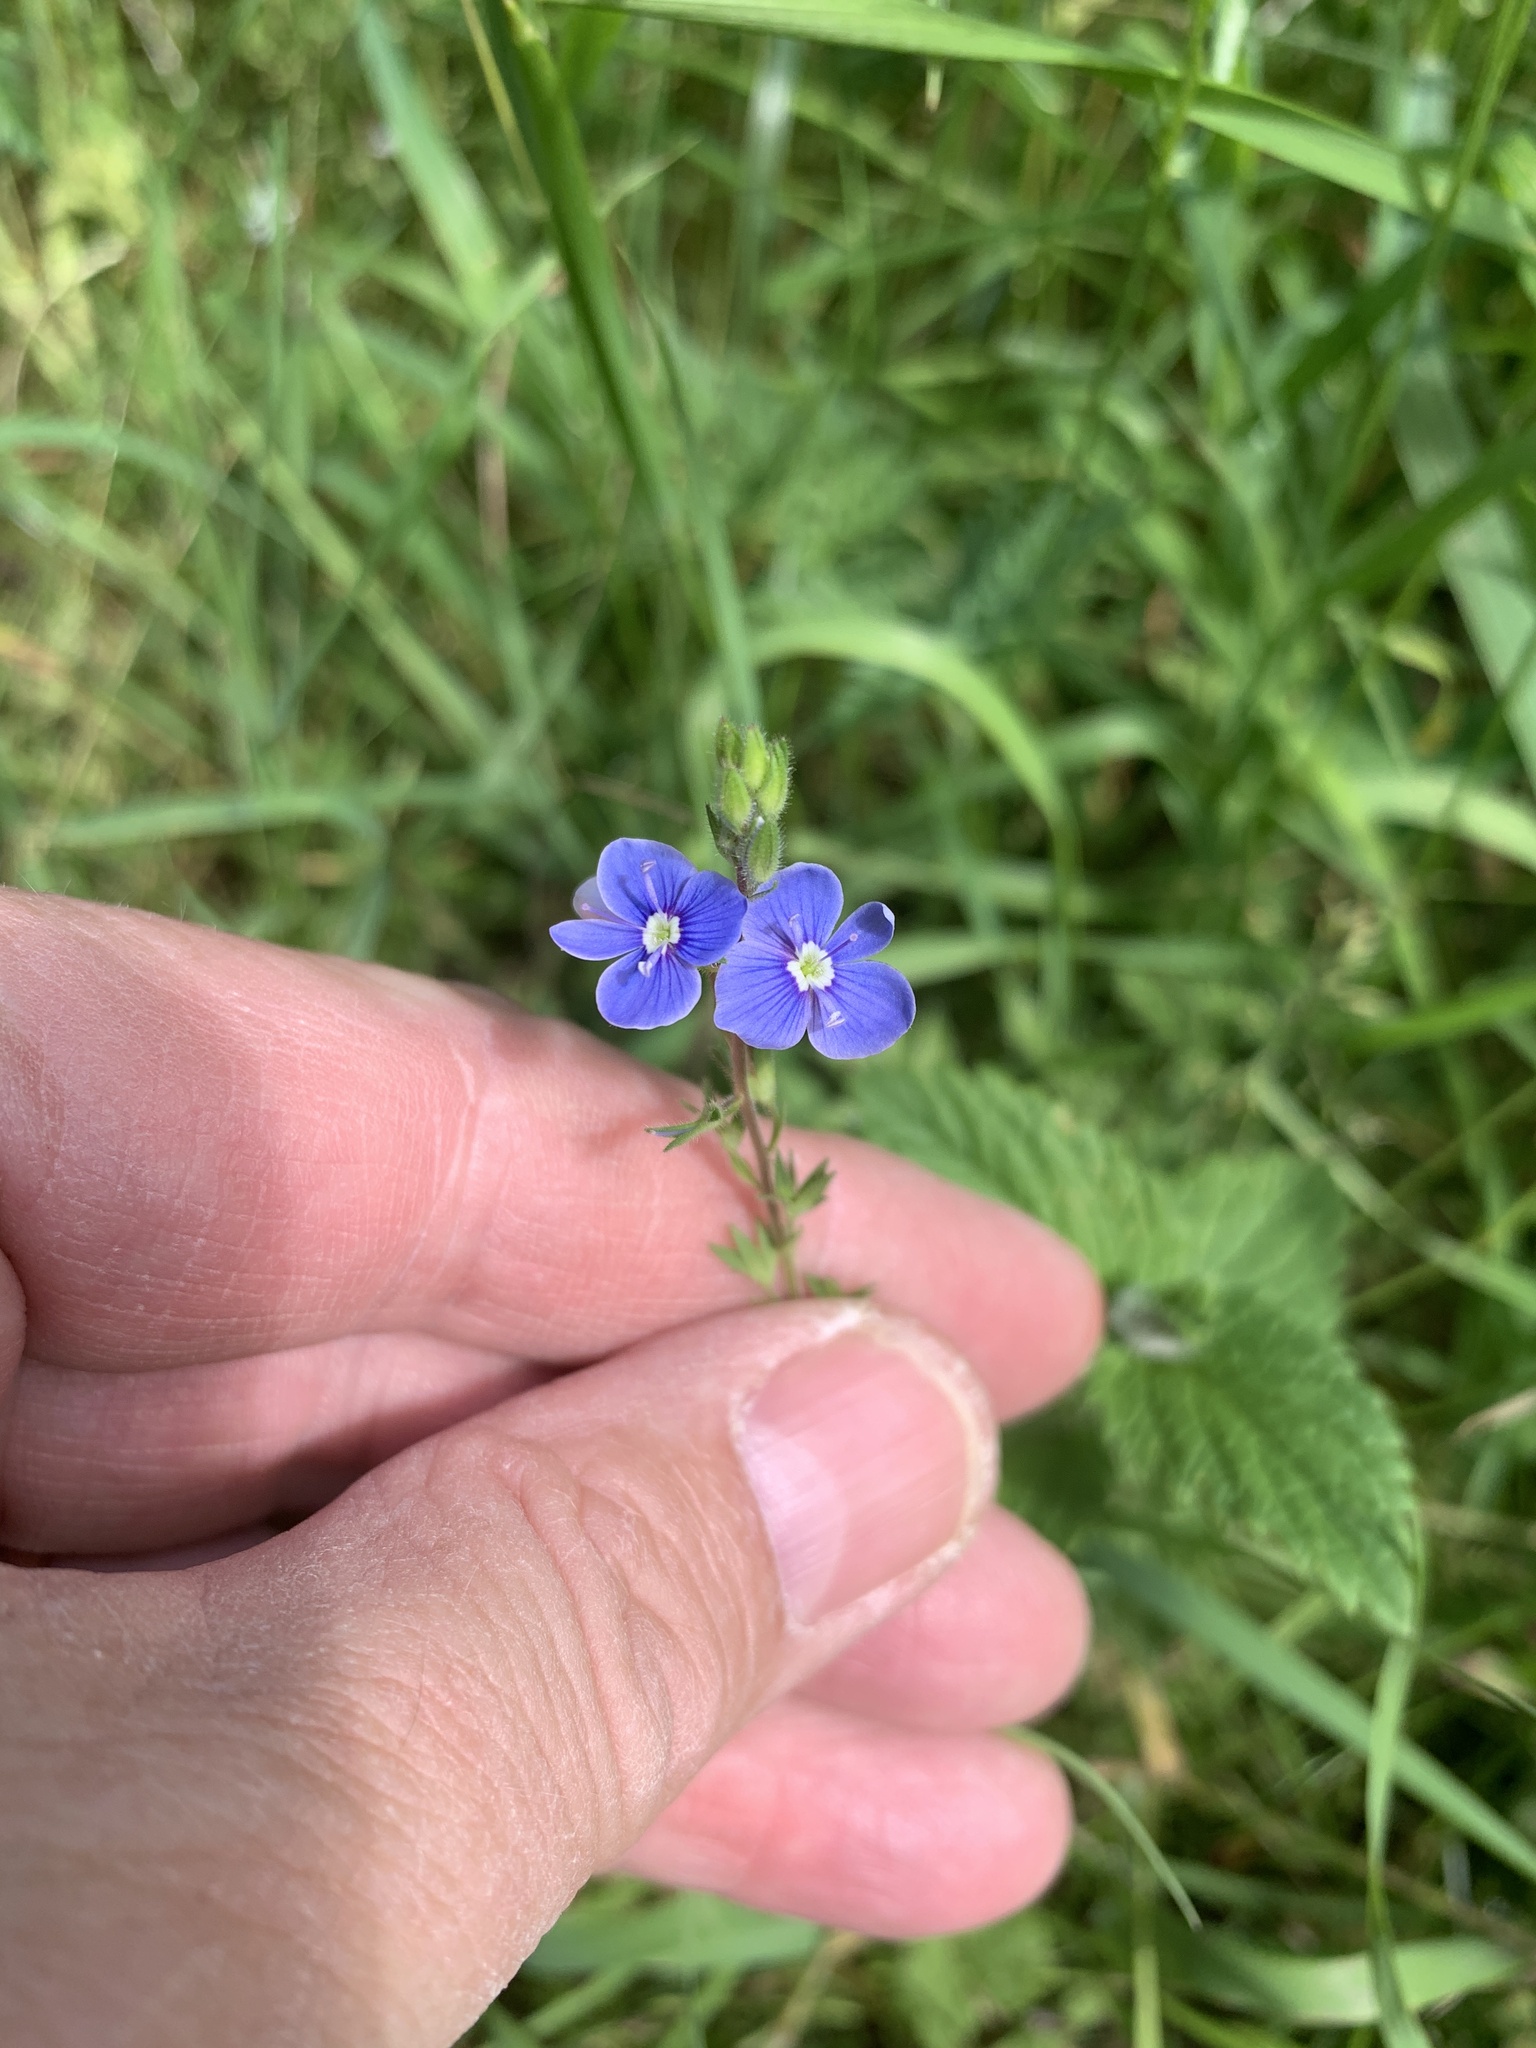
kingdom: Plantae
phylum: Tracheophyta
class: Magnoliopsida
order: Lamiales
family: Plantaginaceae
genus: Veronica
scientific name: Veronica chamaedrys
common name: Germander speedwell
